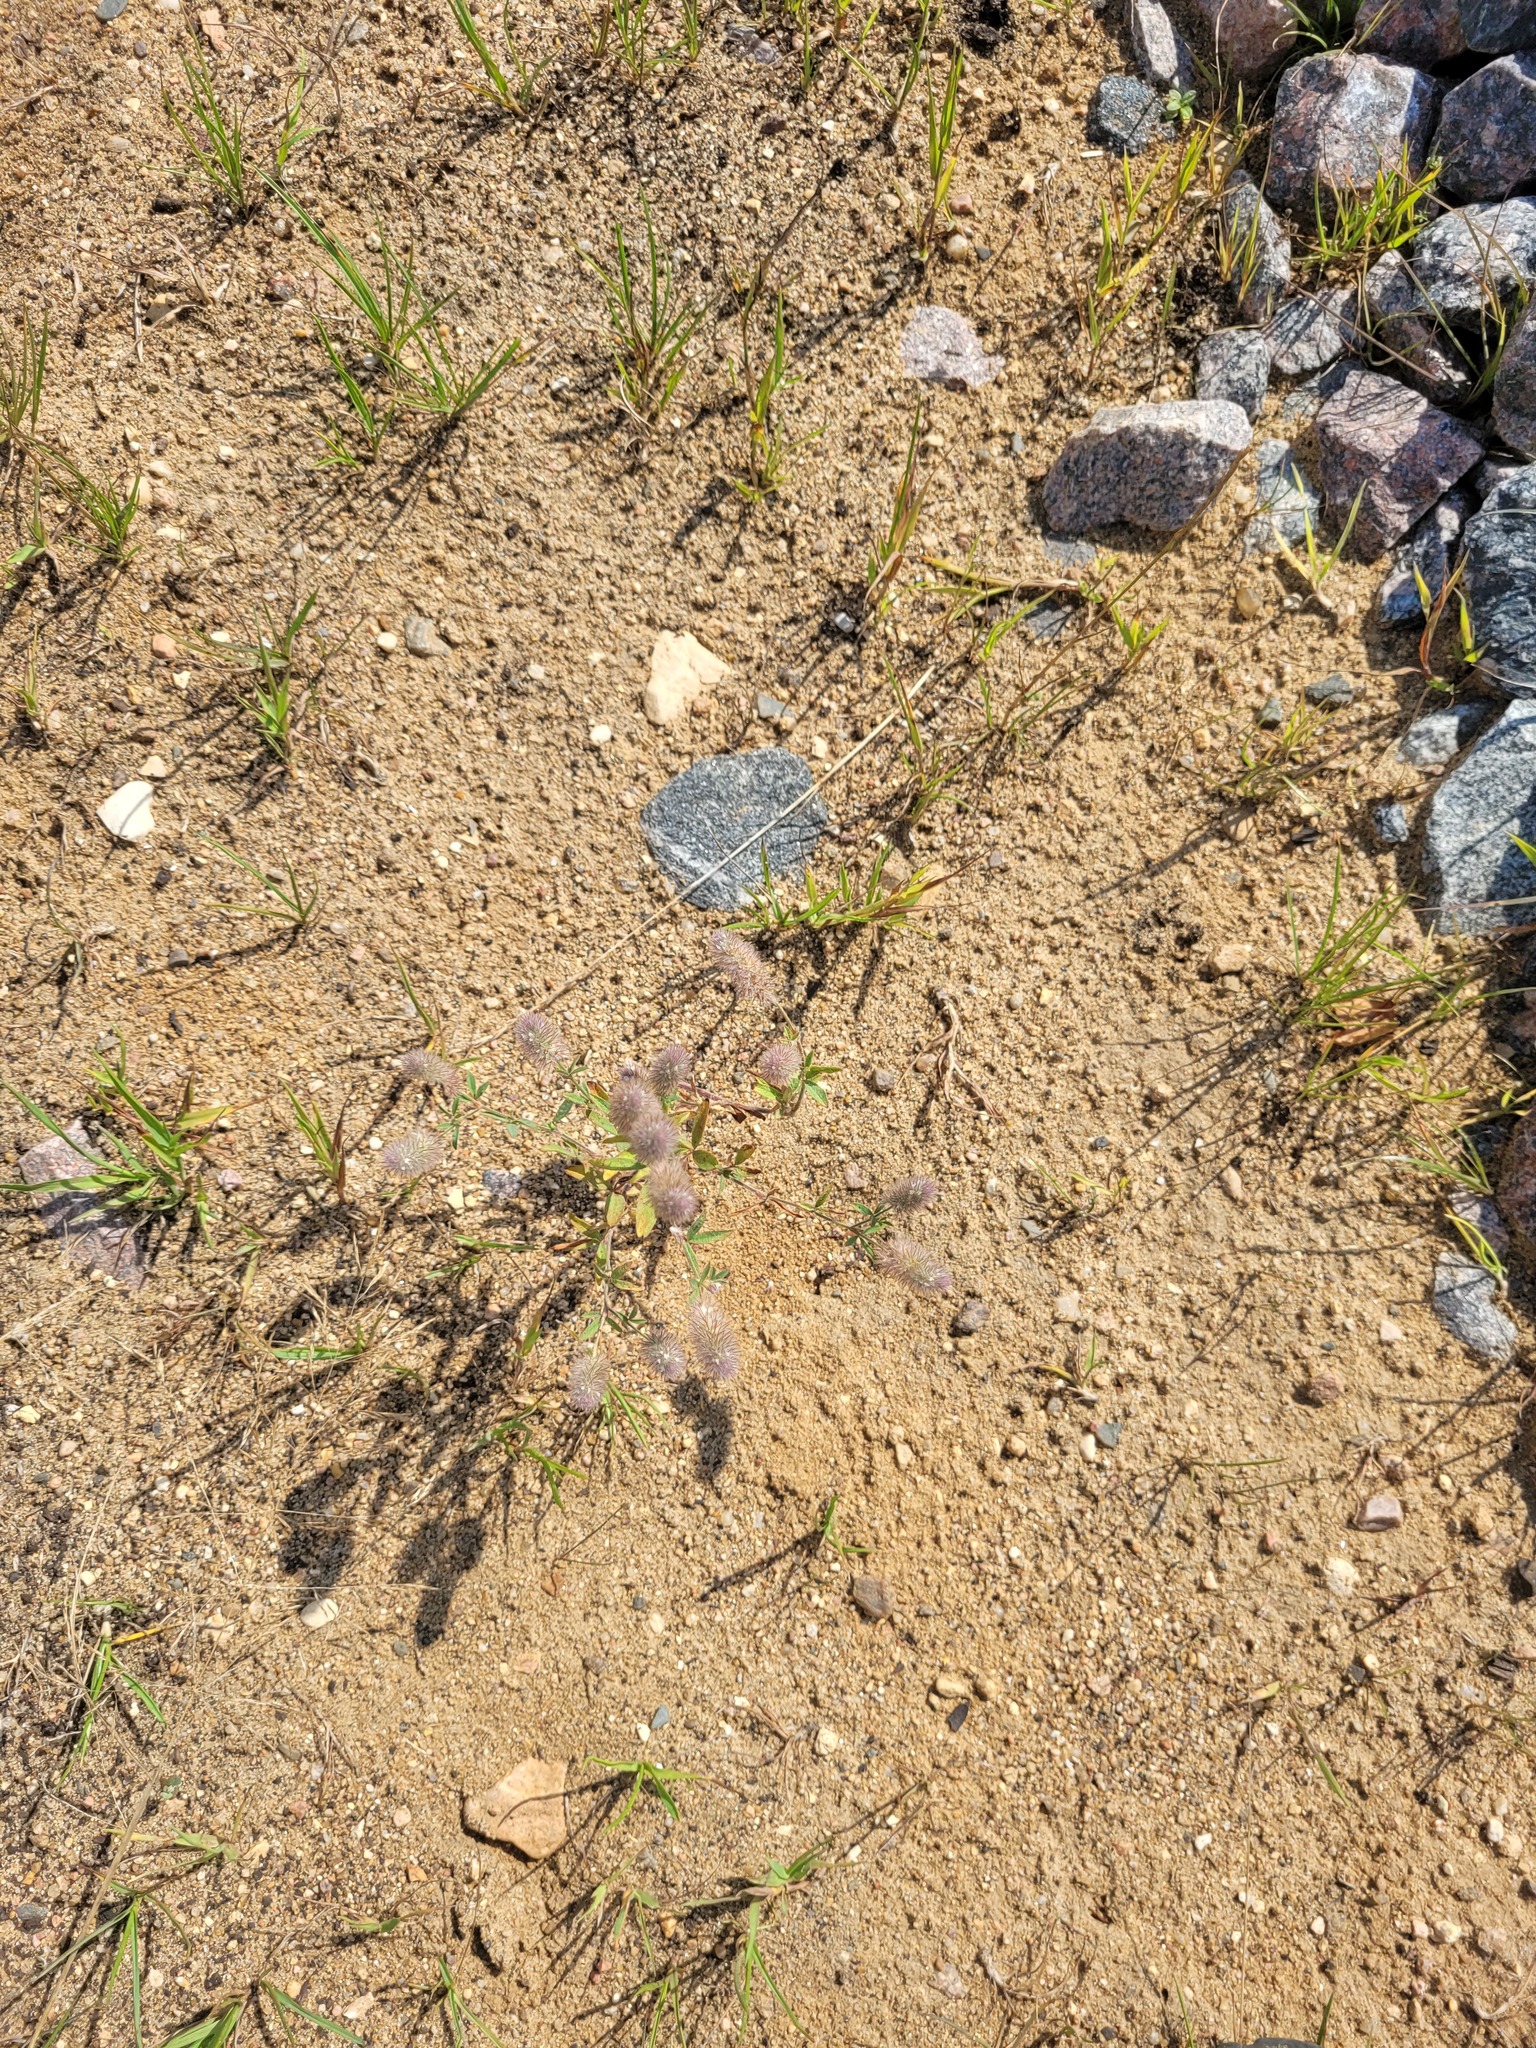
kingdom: Plantae
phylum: Tracheophyta
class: Magnoliopsida
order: Fabales
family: Fabaceae
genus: Trifolium
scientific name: Trifolium arvense
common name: Hare's-foot clover
